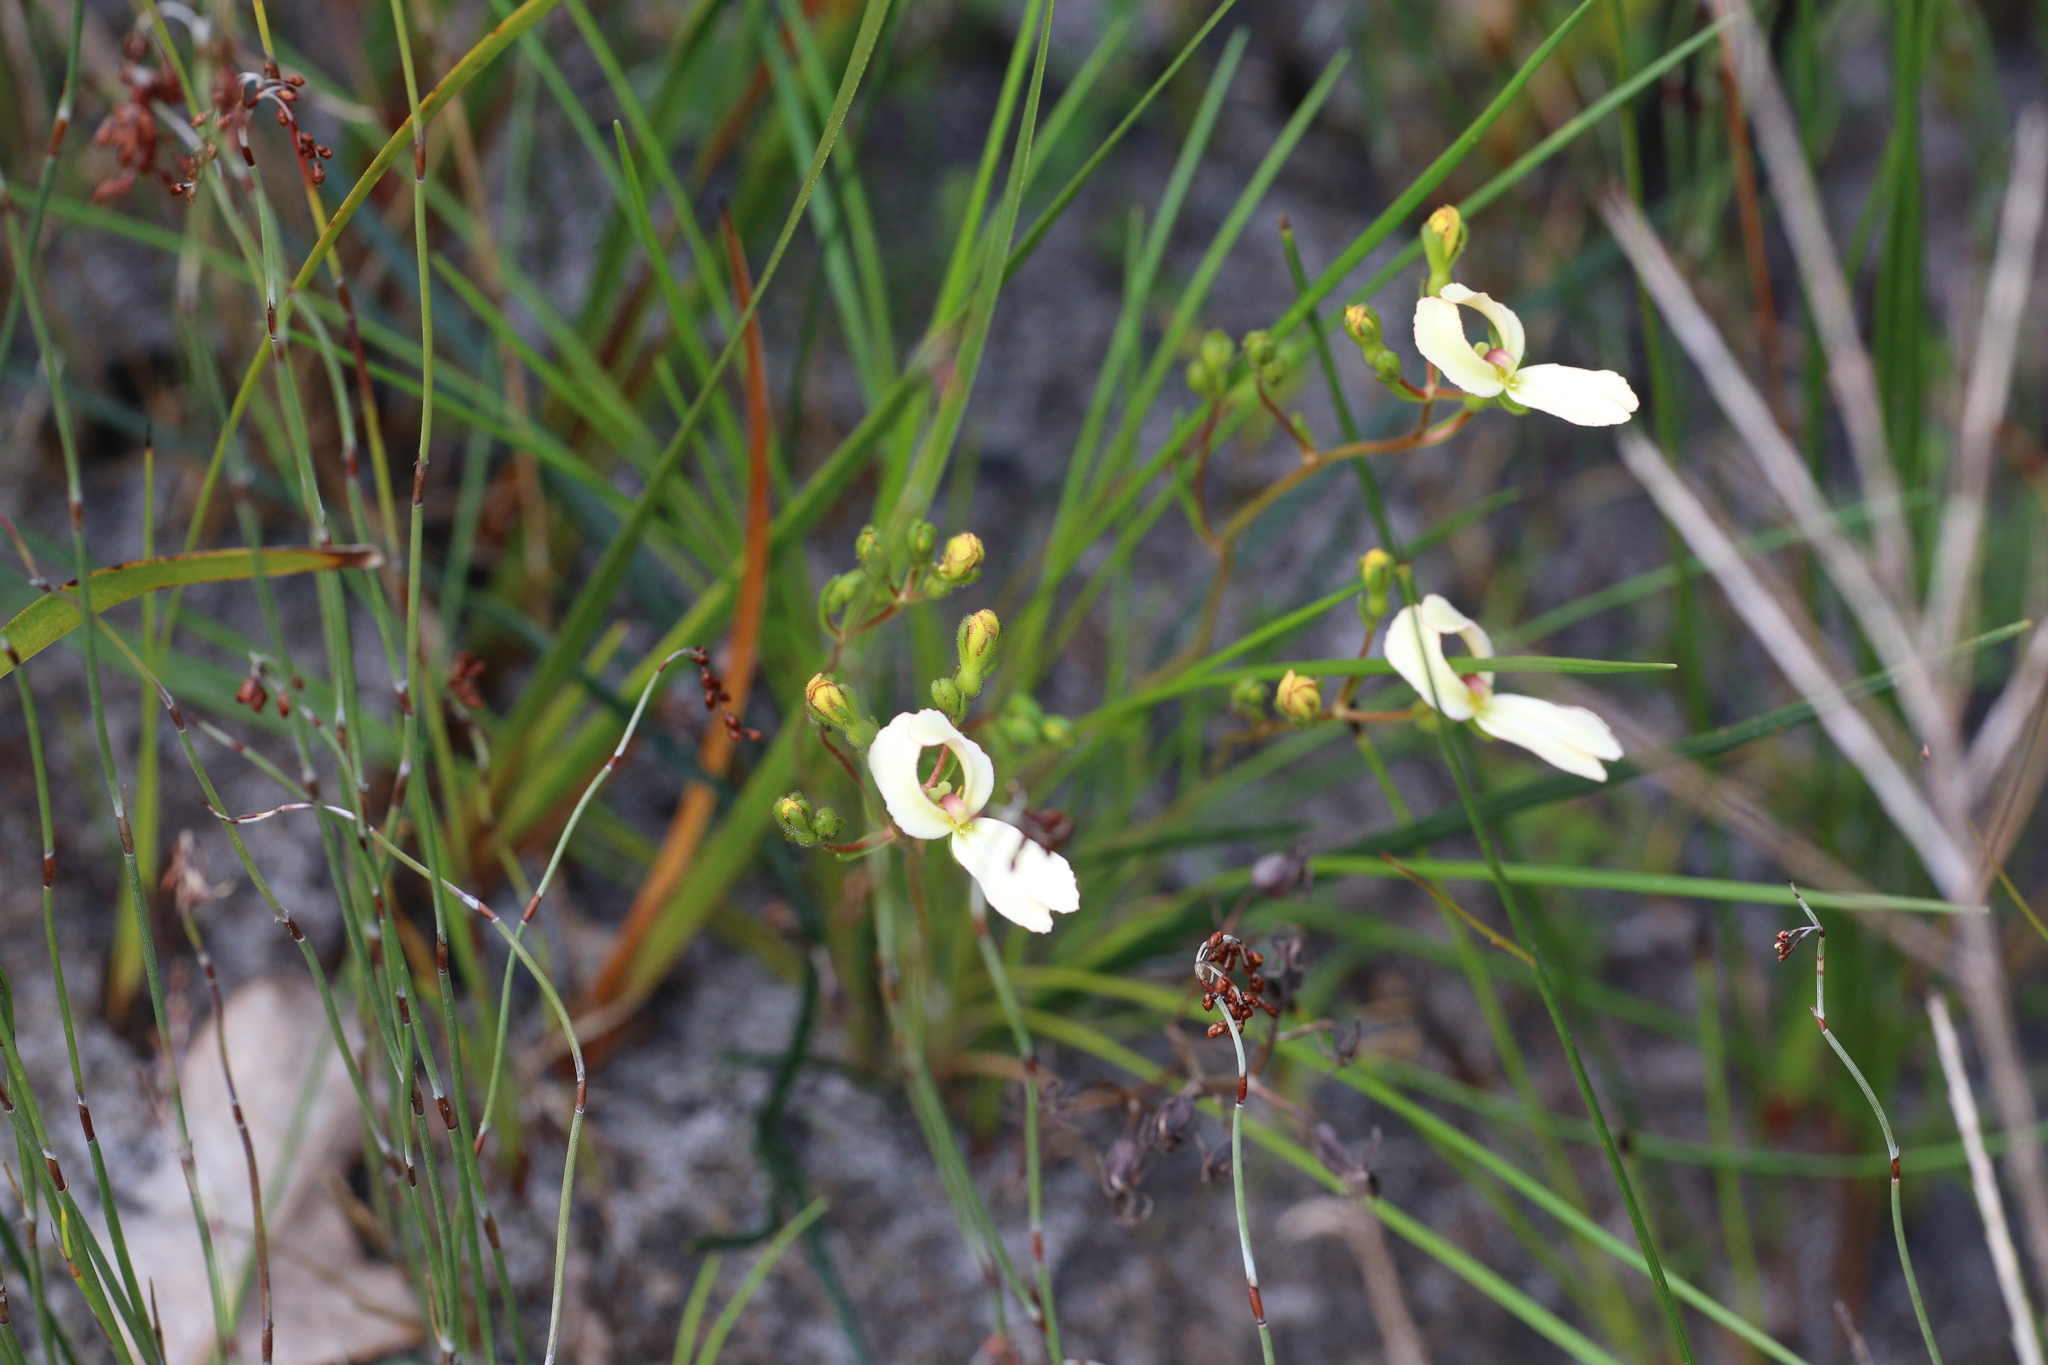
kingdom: Plantae
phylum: Tracheophyta
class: Magnoliopsida
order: Asterales
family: Stylidiaceae
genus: Stylidium
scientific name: Stylidium schoenoides
